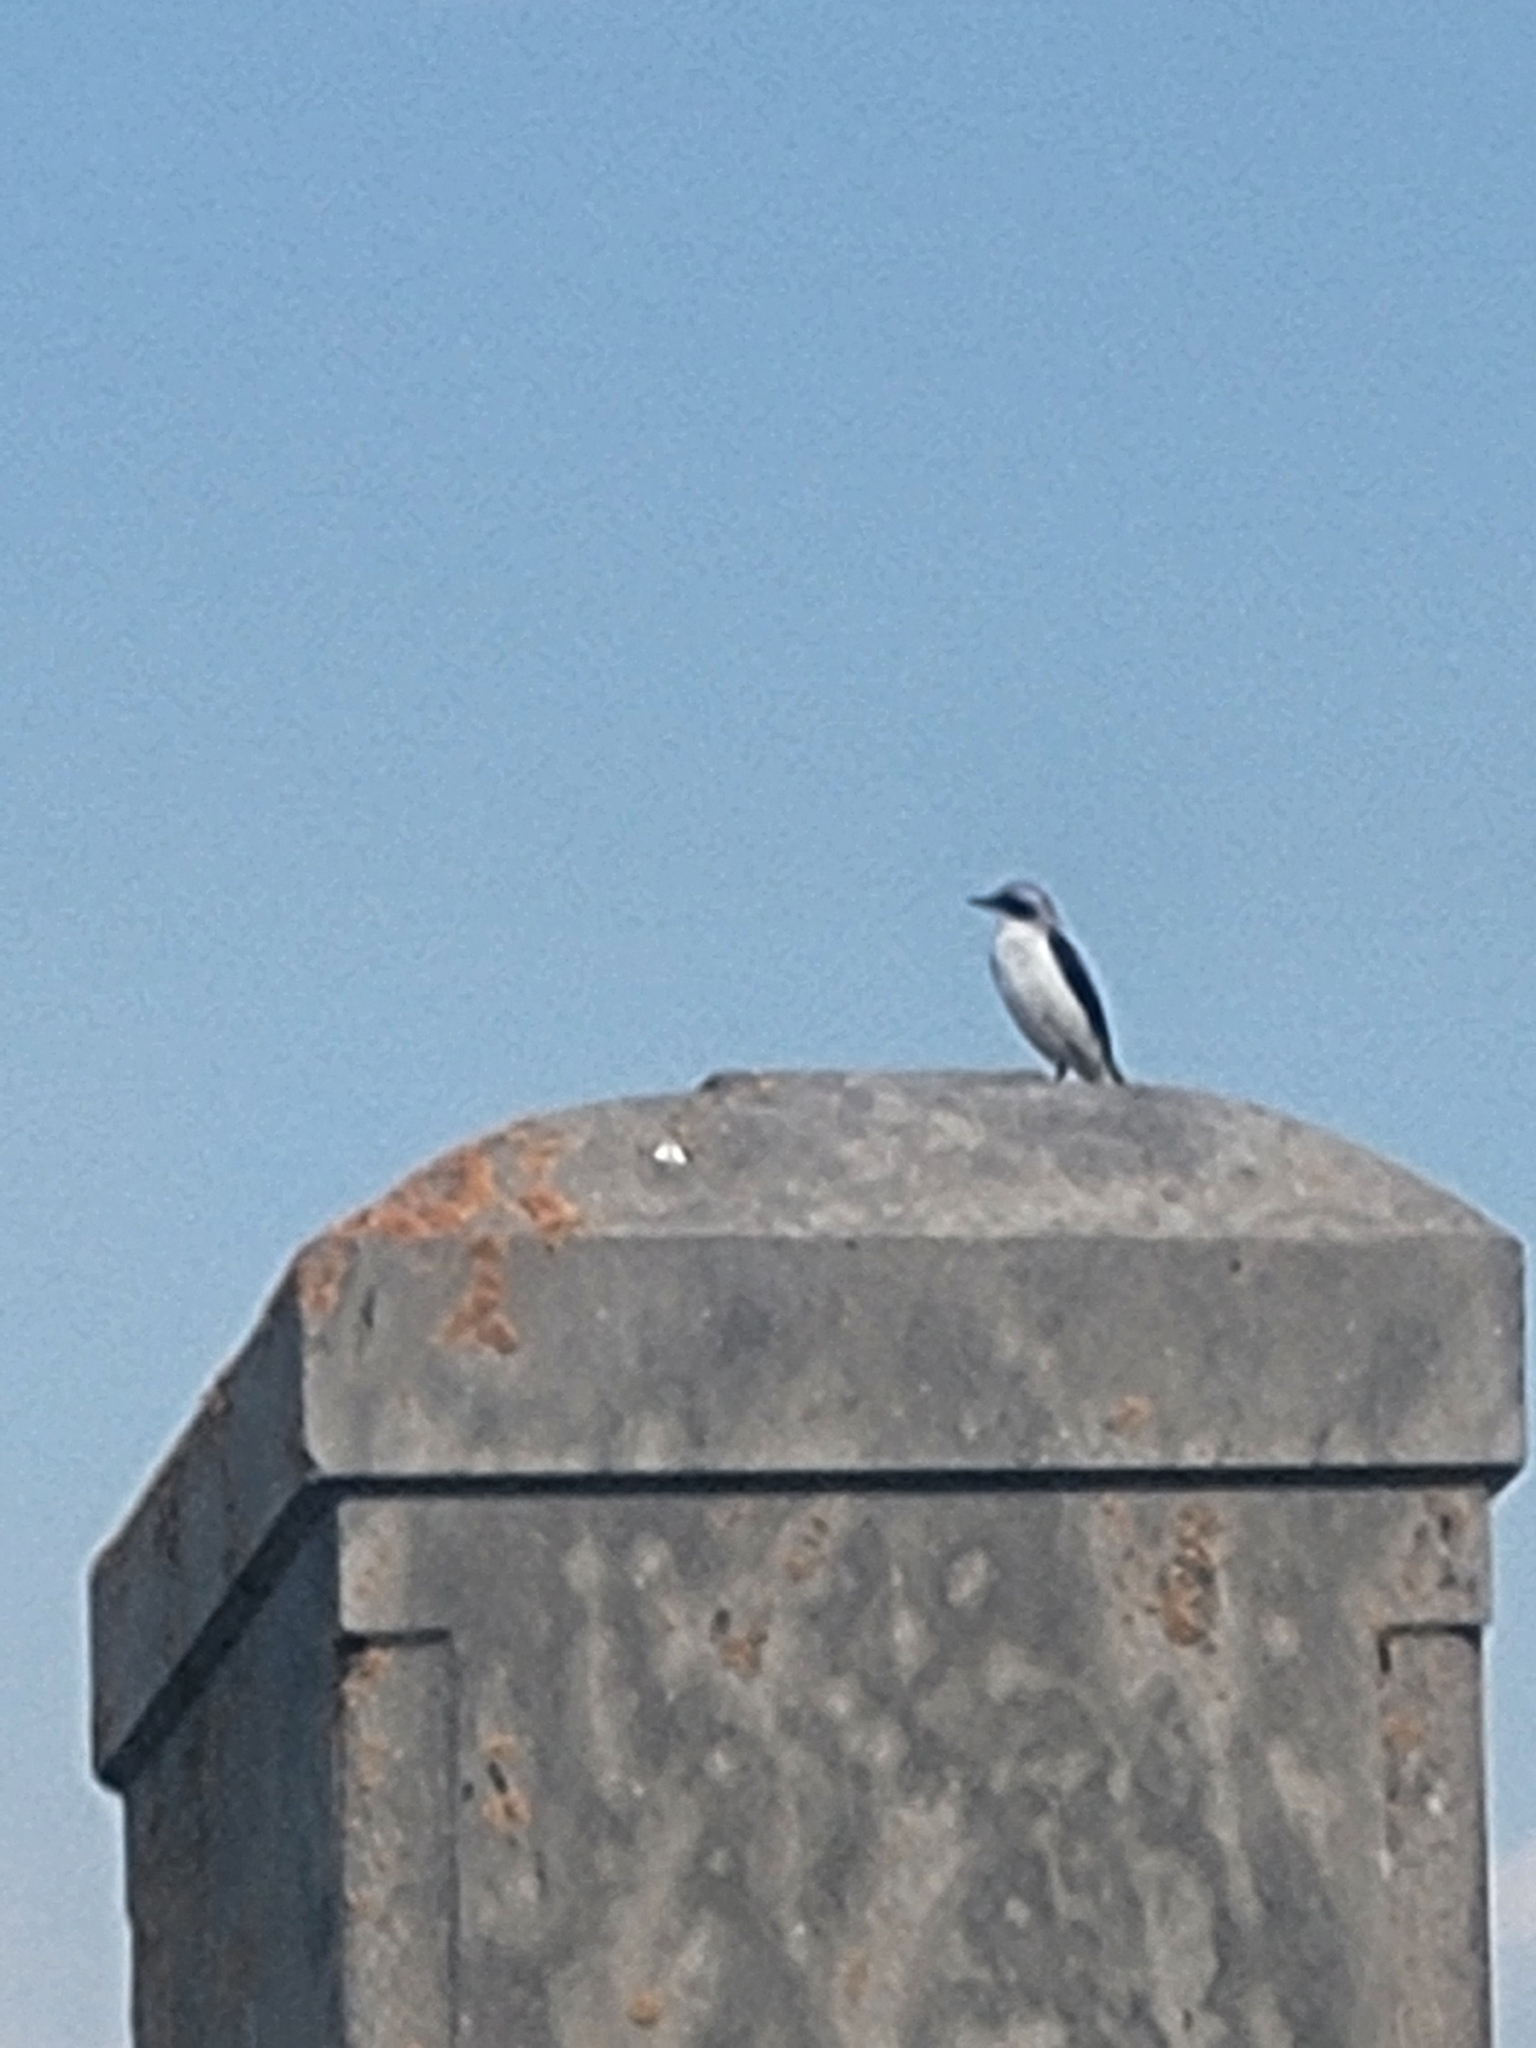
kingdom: Animalia
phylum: Chordata
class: Aves
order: Passeriformes
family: Muscicapidae
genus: Oenanthe
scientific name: Oenanthe oenanthe
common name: Northern wheatear
